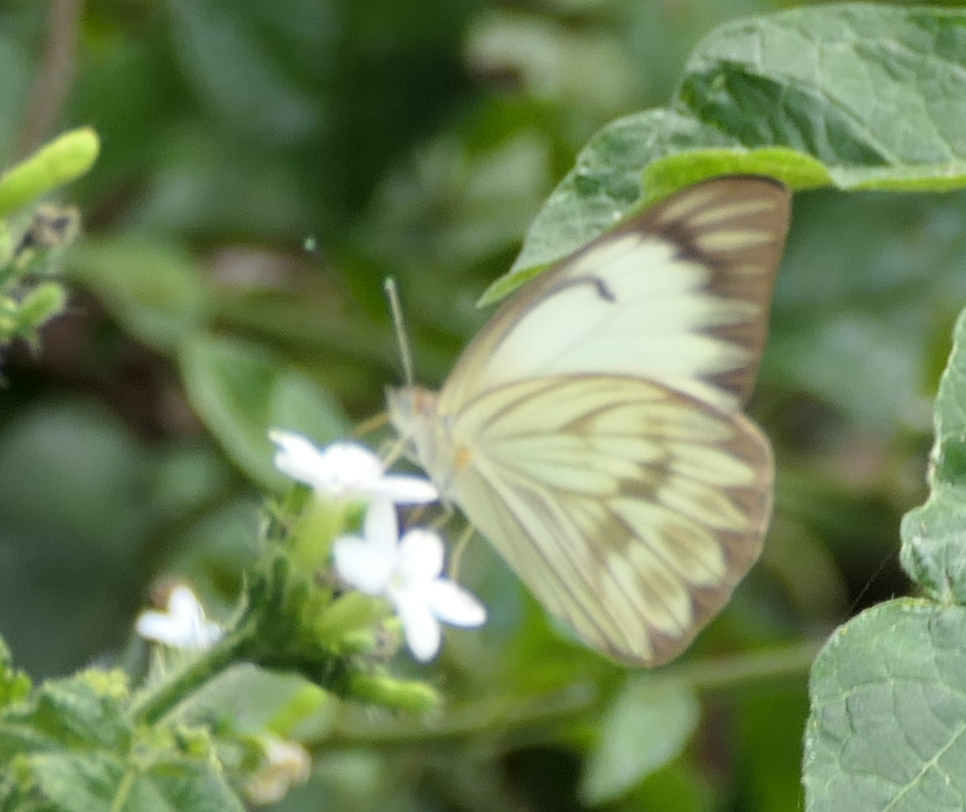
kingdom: Animalia
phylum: Arthropoda
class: Insecta
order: Lepidoptera
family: Pieridae
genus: Ascia
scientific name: Ascia monuste
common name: Great southern white
